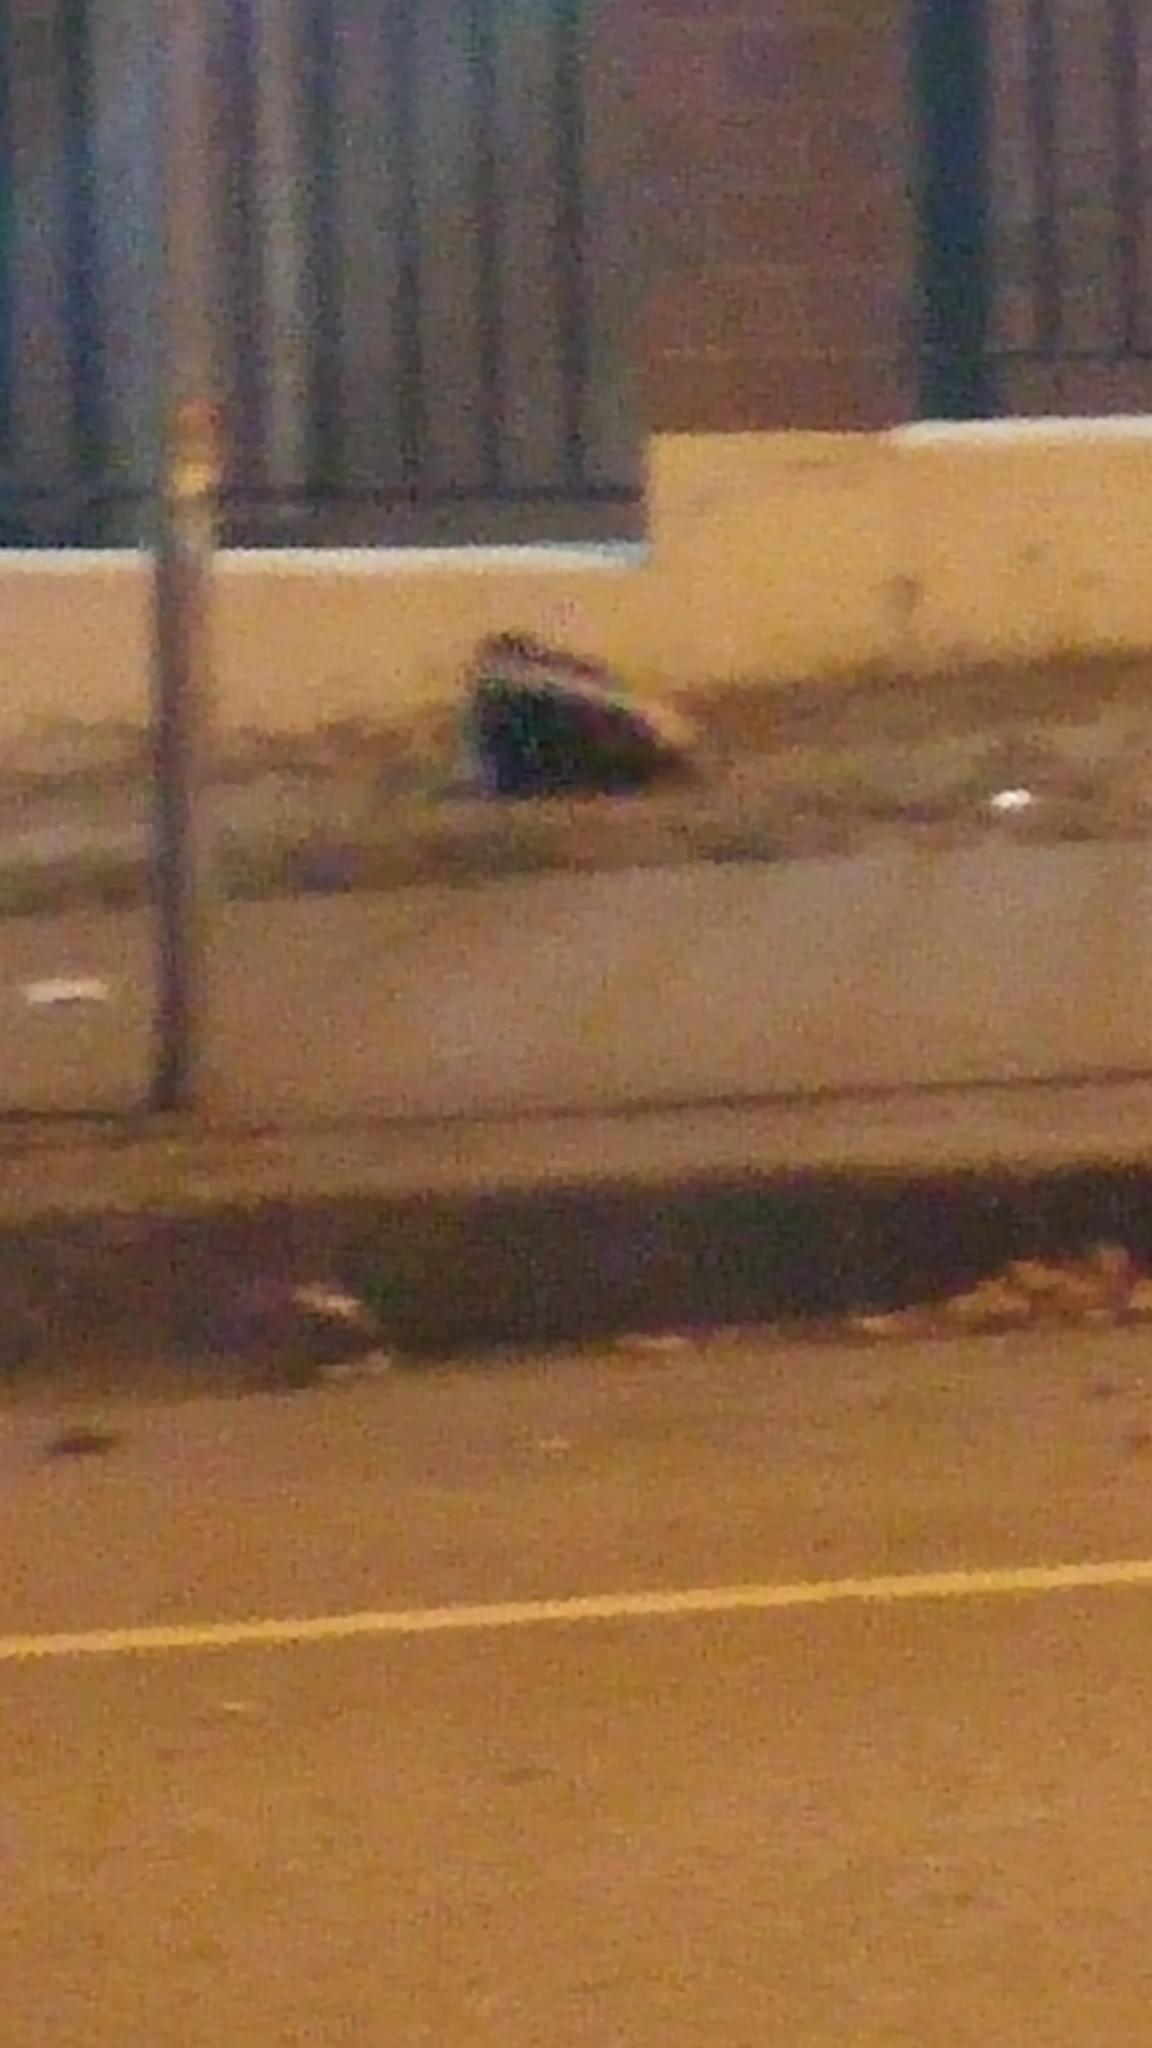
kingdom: Animalia
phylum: Chordata
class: Mammalia
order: Carnivora
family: Mephitidae
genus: Mephitis
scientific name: Mephitis mephitis
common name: Striped skunk
